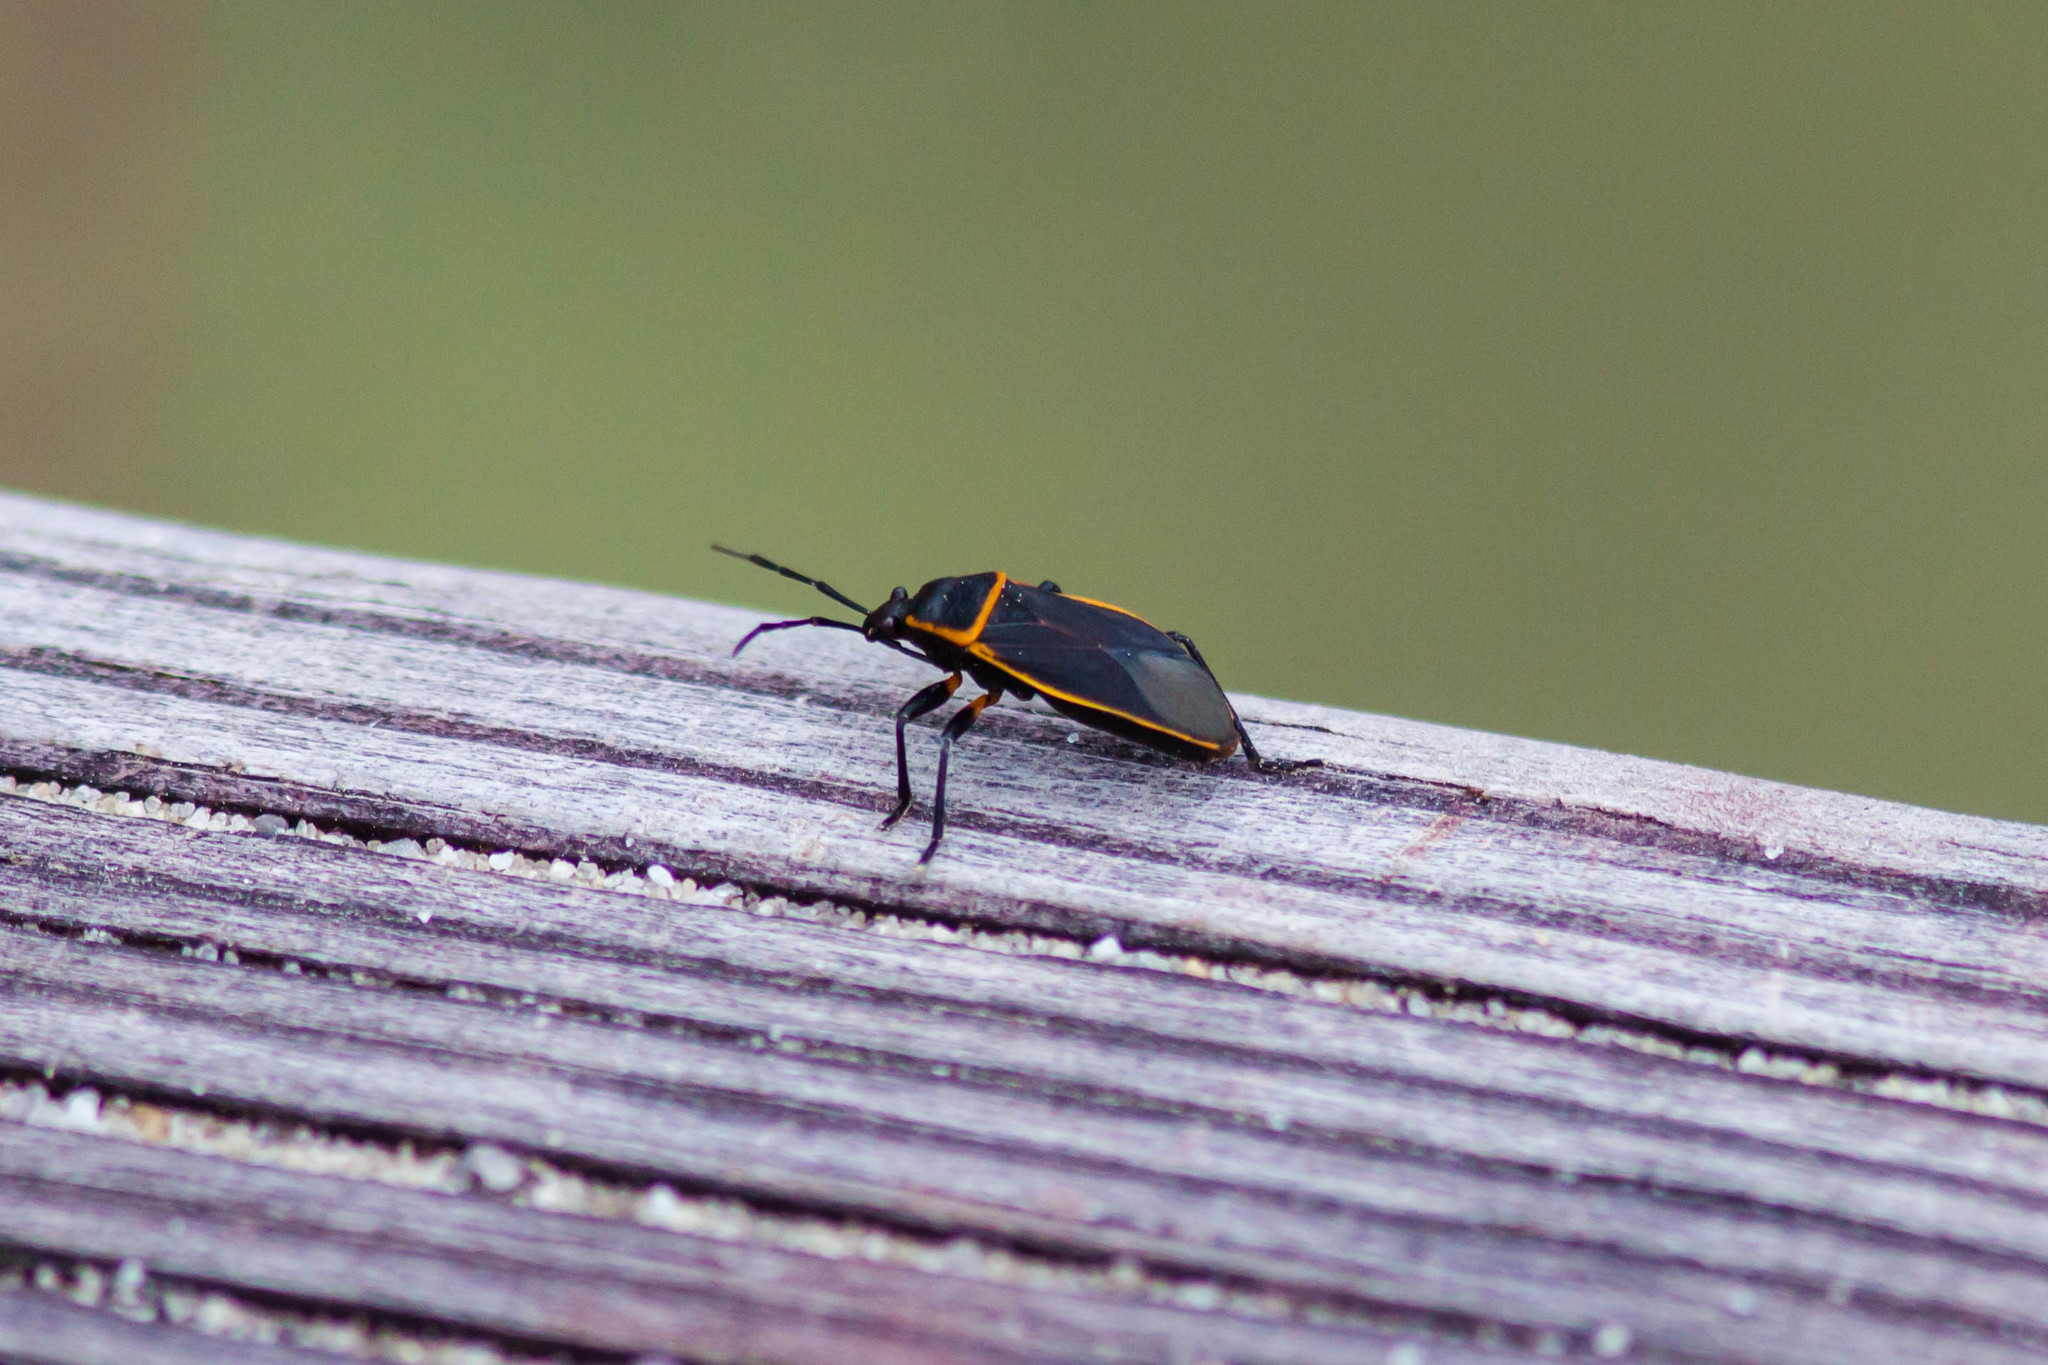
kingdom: Animalia
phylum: Arthropoda
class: Insecta
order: Hemiptera
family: Largidae
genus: Largus
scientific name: Largus succinctus
